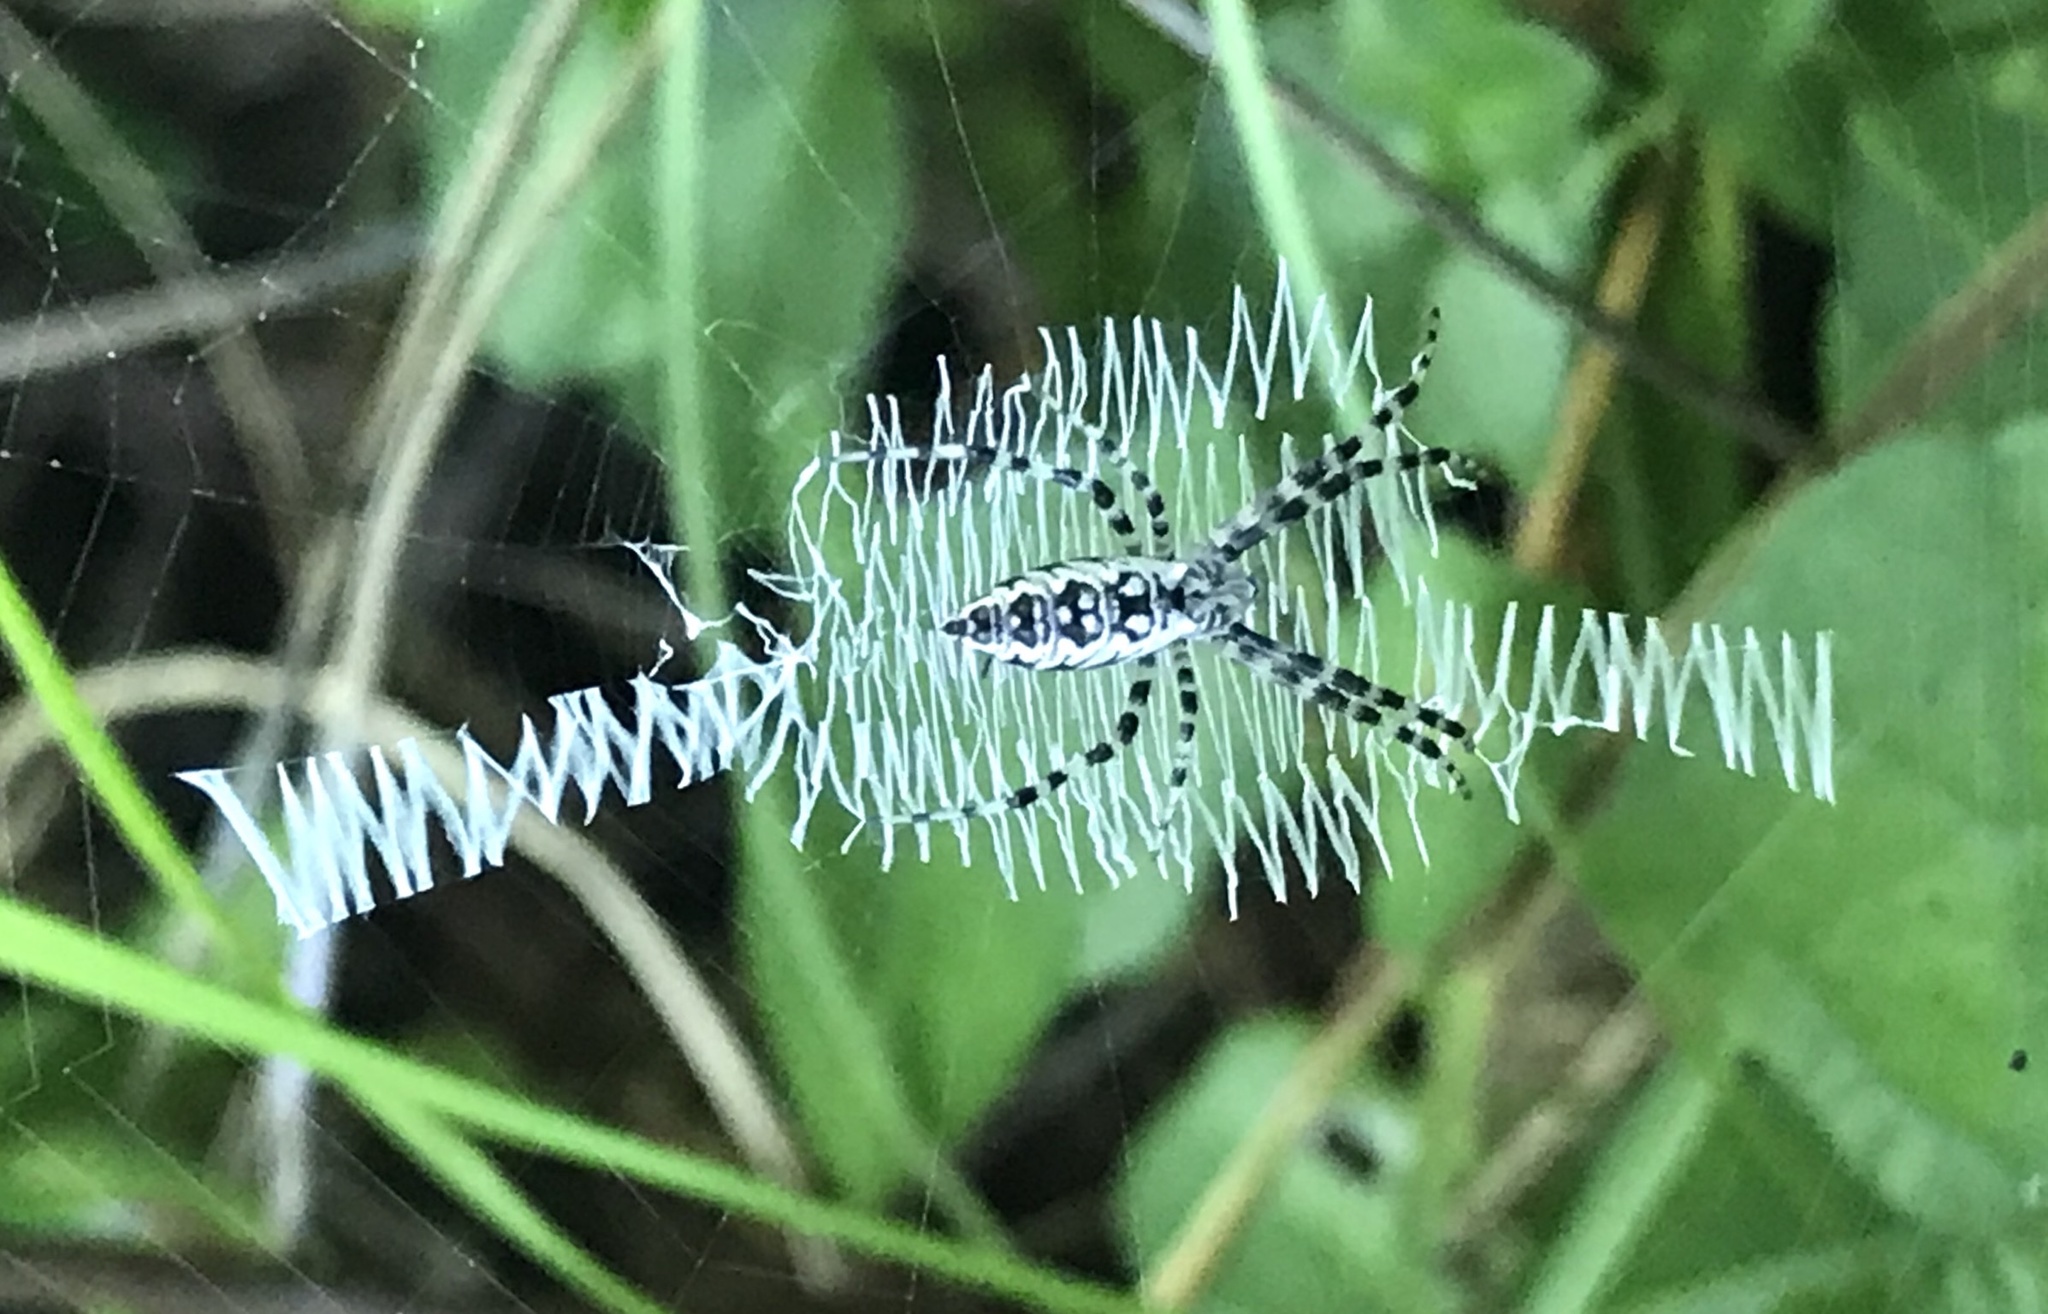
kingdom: Animalia
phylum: Arthropoda
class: Arachnida
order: Araneae
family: Araneidae
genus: Argiope
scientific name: Argiope aurantia
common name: Orb weavers
